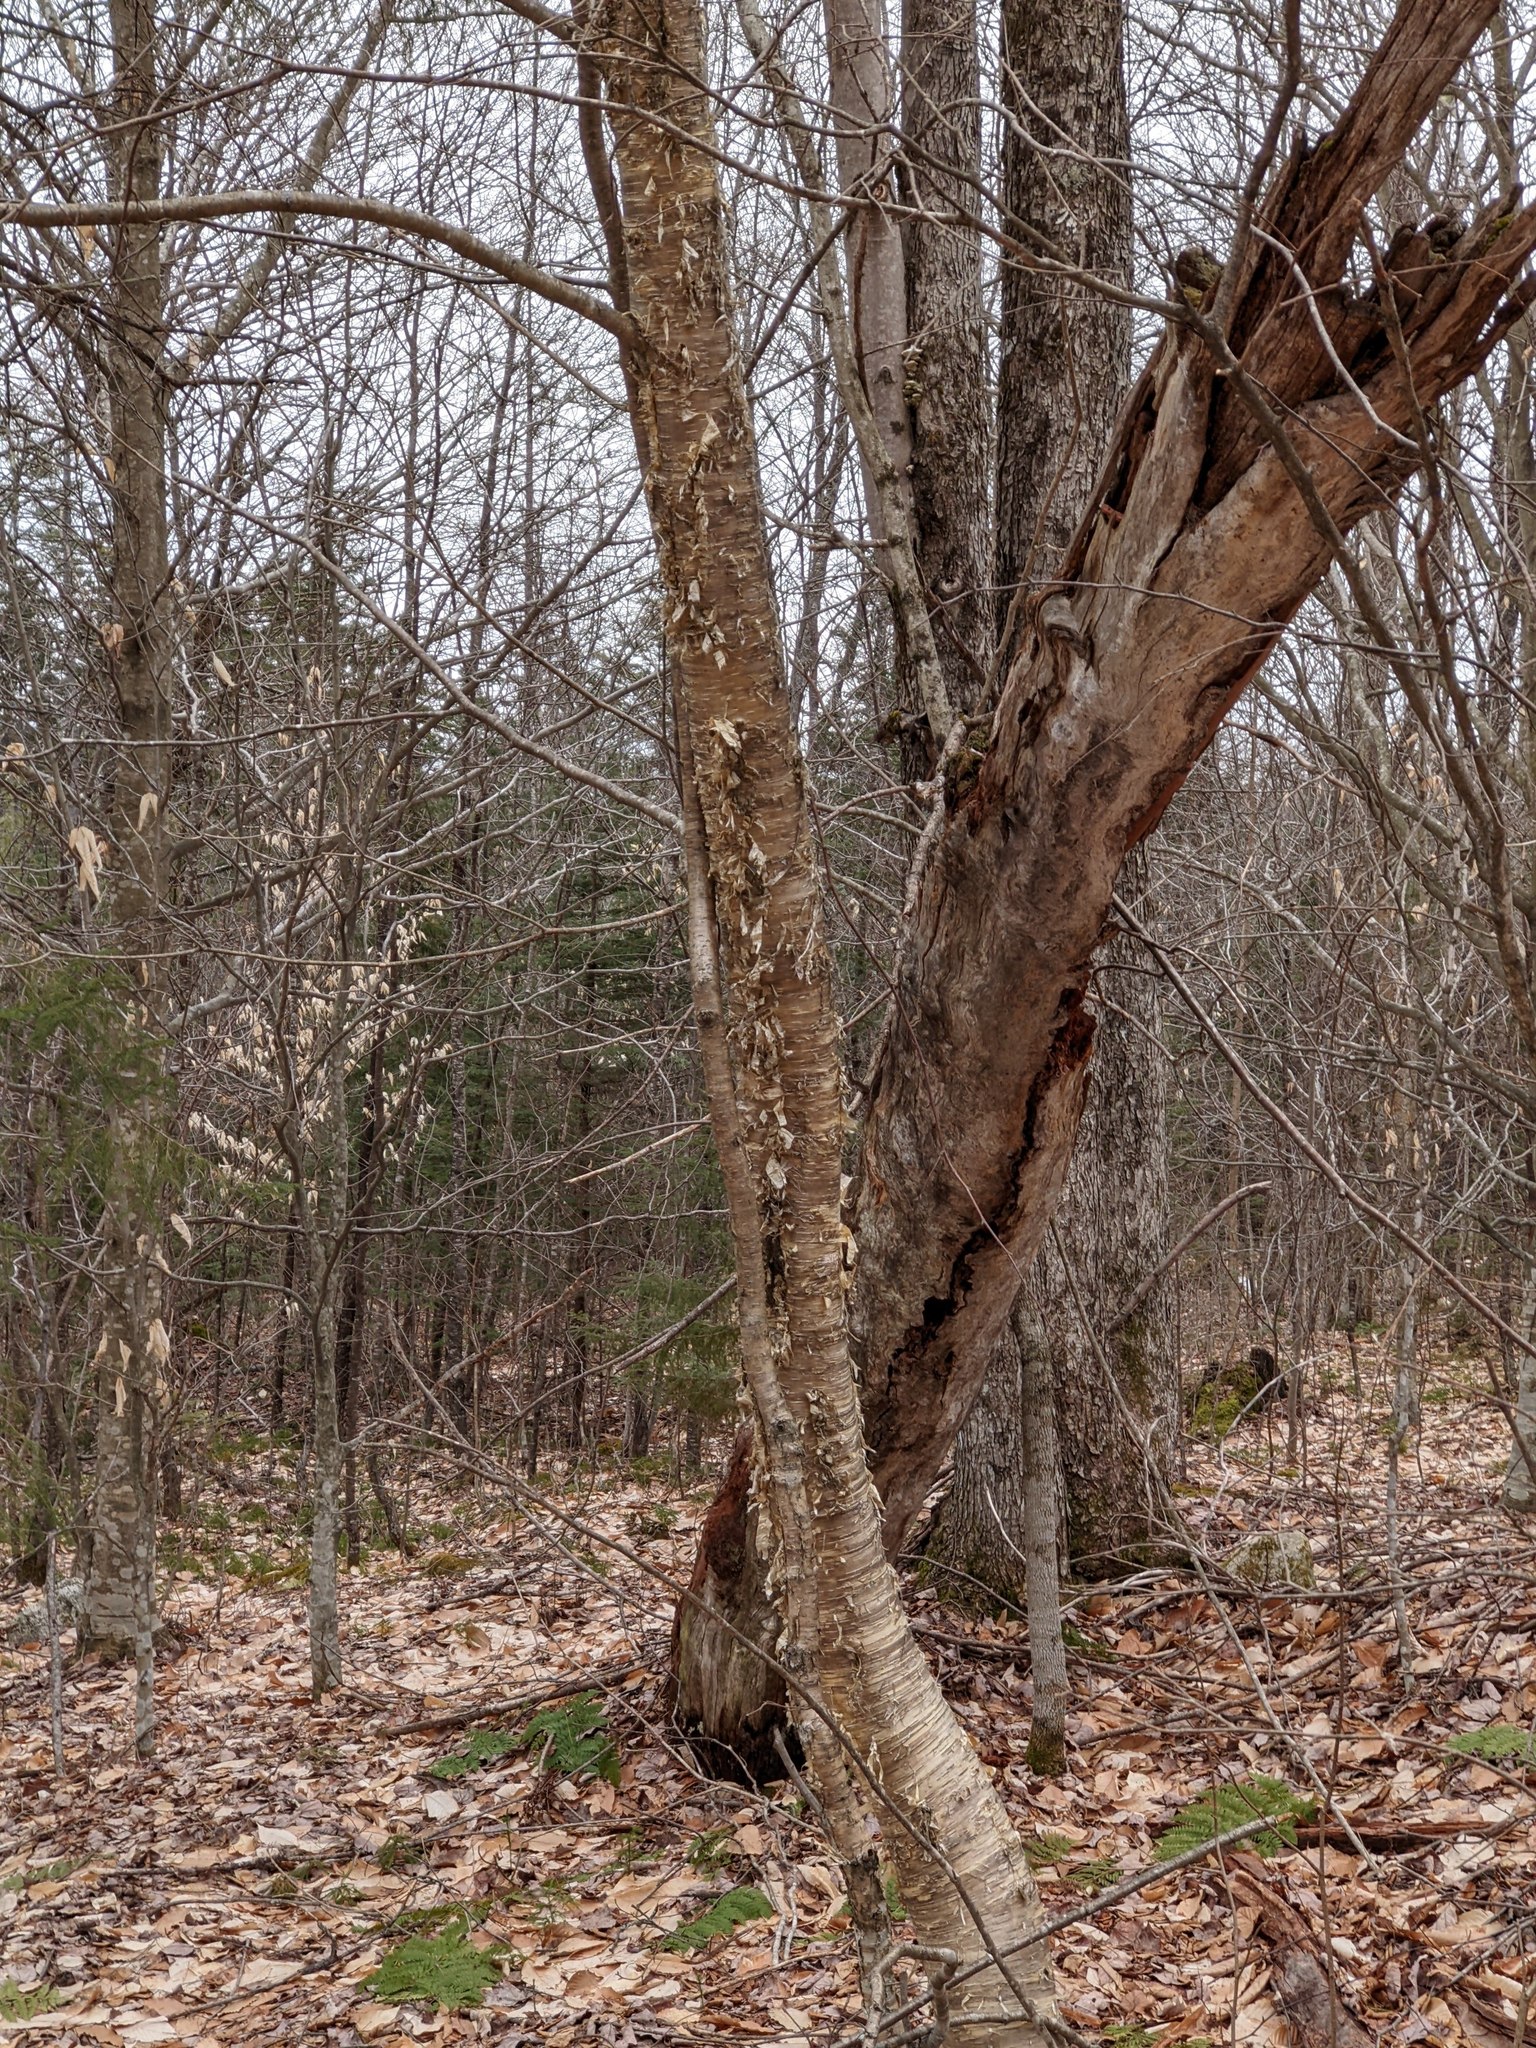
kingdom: Plantae
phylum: Tracheophyta
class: Magnoliopsida
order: Fagales
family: Betulaceae
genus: Betula
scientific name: Betula alleghaniensis
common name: Yellow birch
